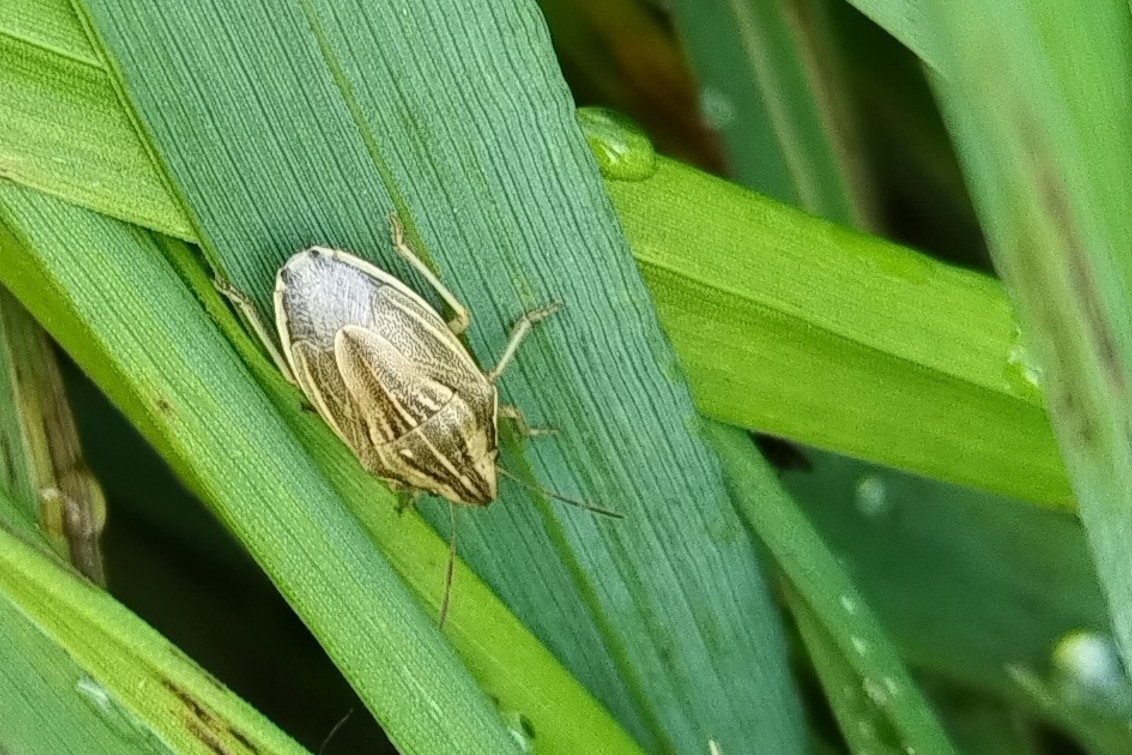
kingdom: Animalia
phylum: Arthropoda
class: Insecta
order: Hemiptera
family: Pentatomidae
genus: Aelia
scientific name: Aelia acuminata
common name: Bishop's mitre
